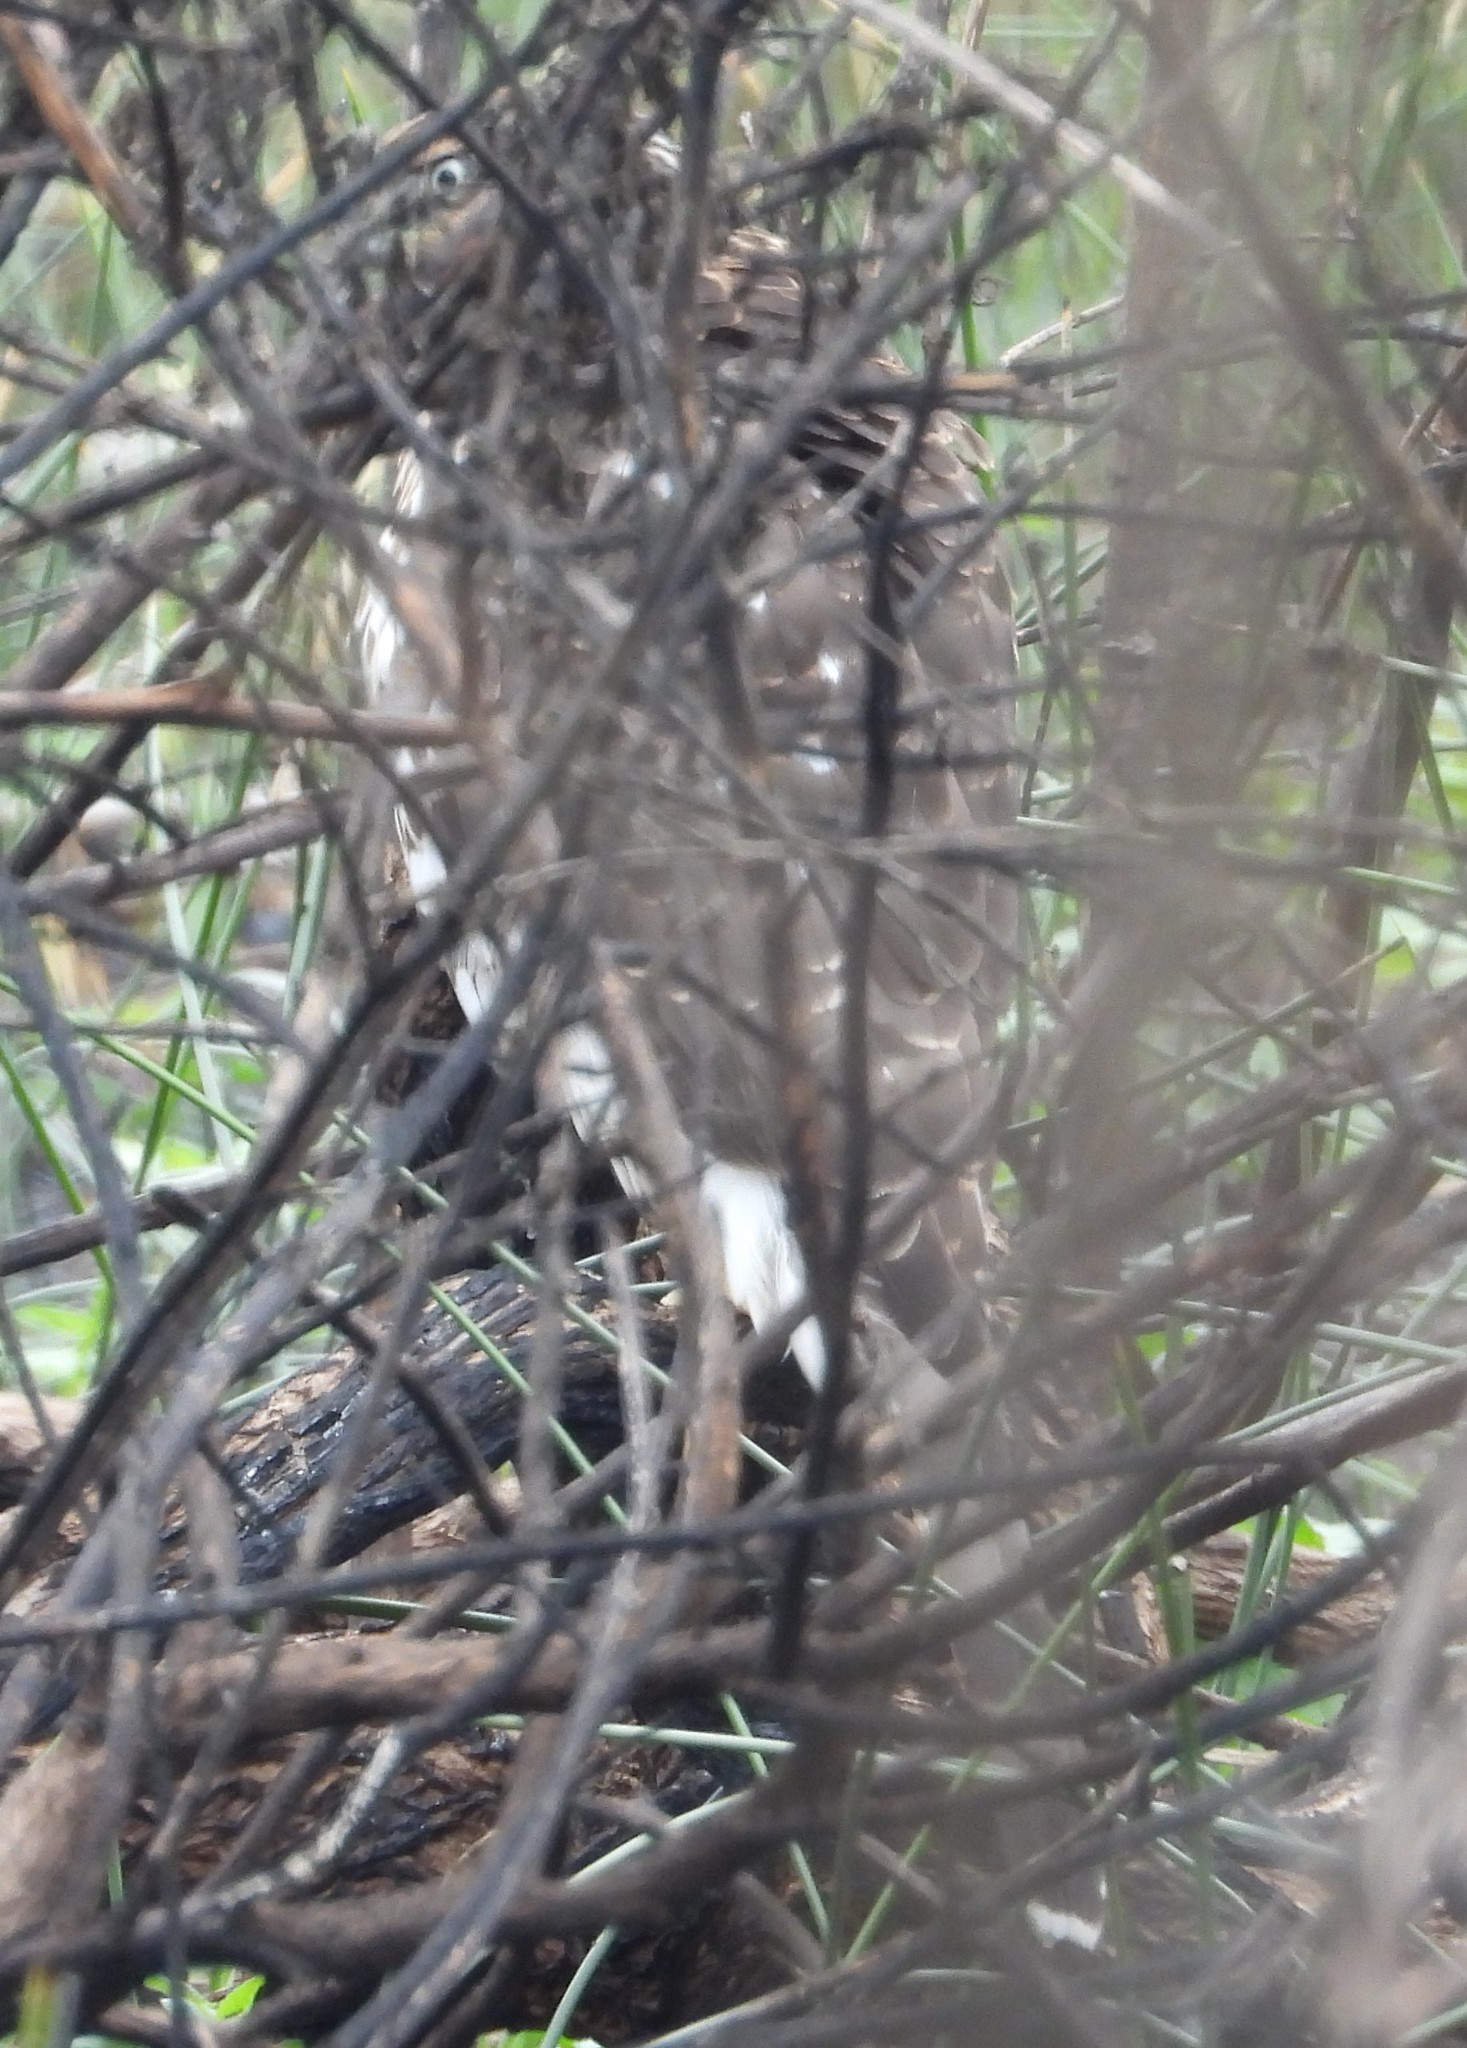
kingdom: Animalia
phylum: Chordata
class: Aves
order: Accipitriformes
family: Accipitridae
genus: Accipiter
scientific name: Accipiter cooperii
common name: Cooper's hawk
